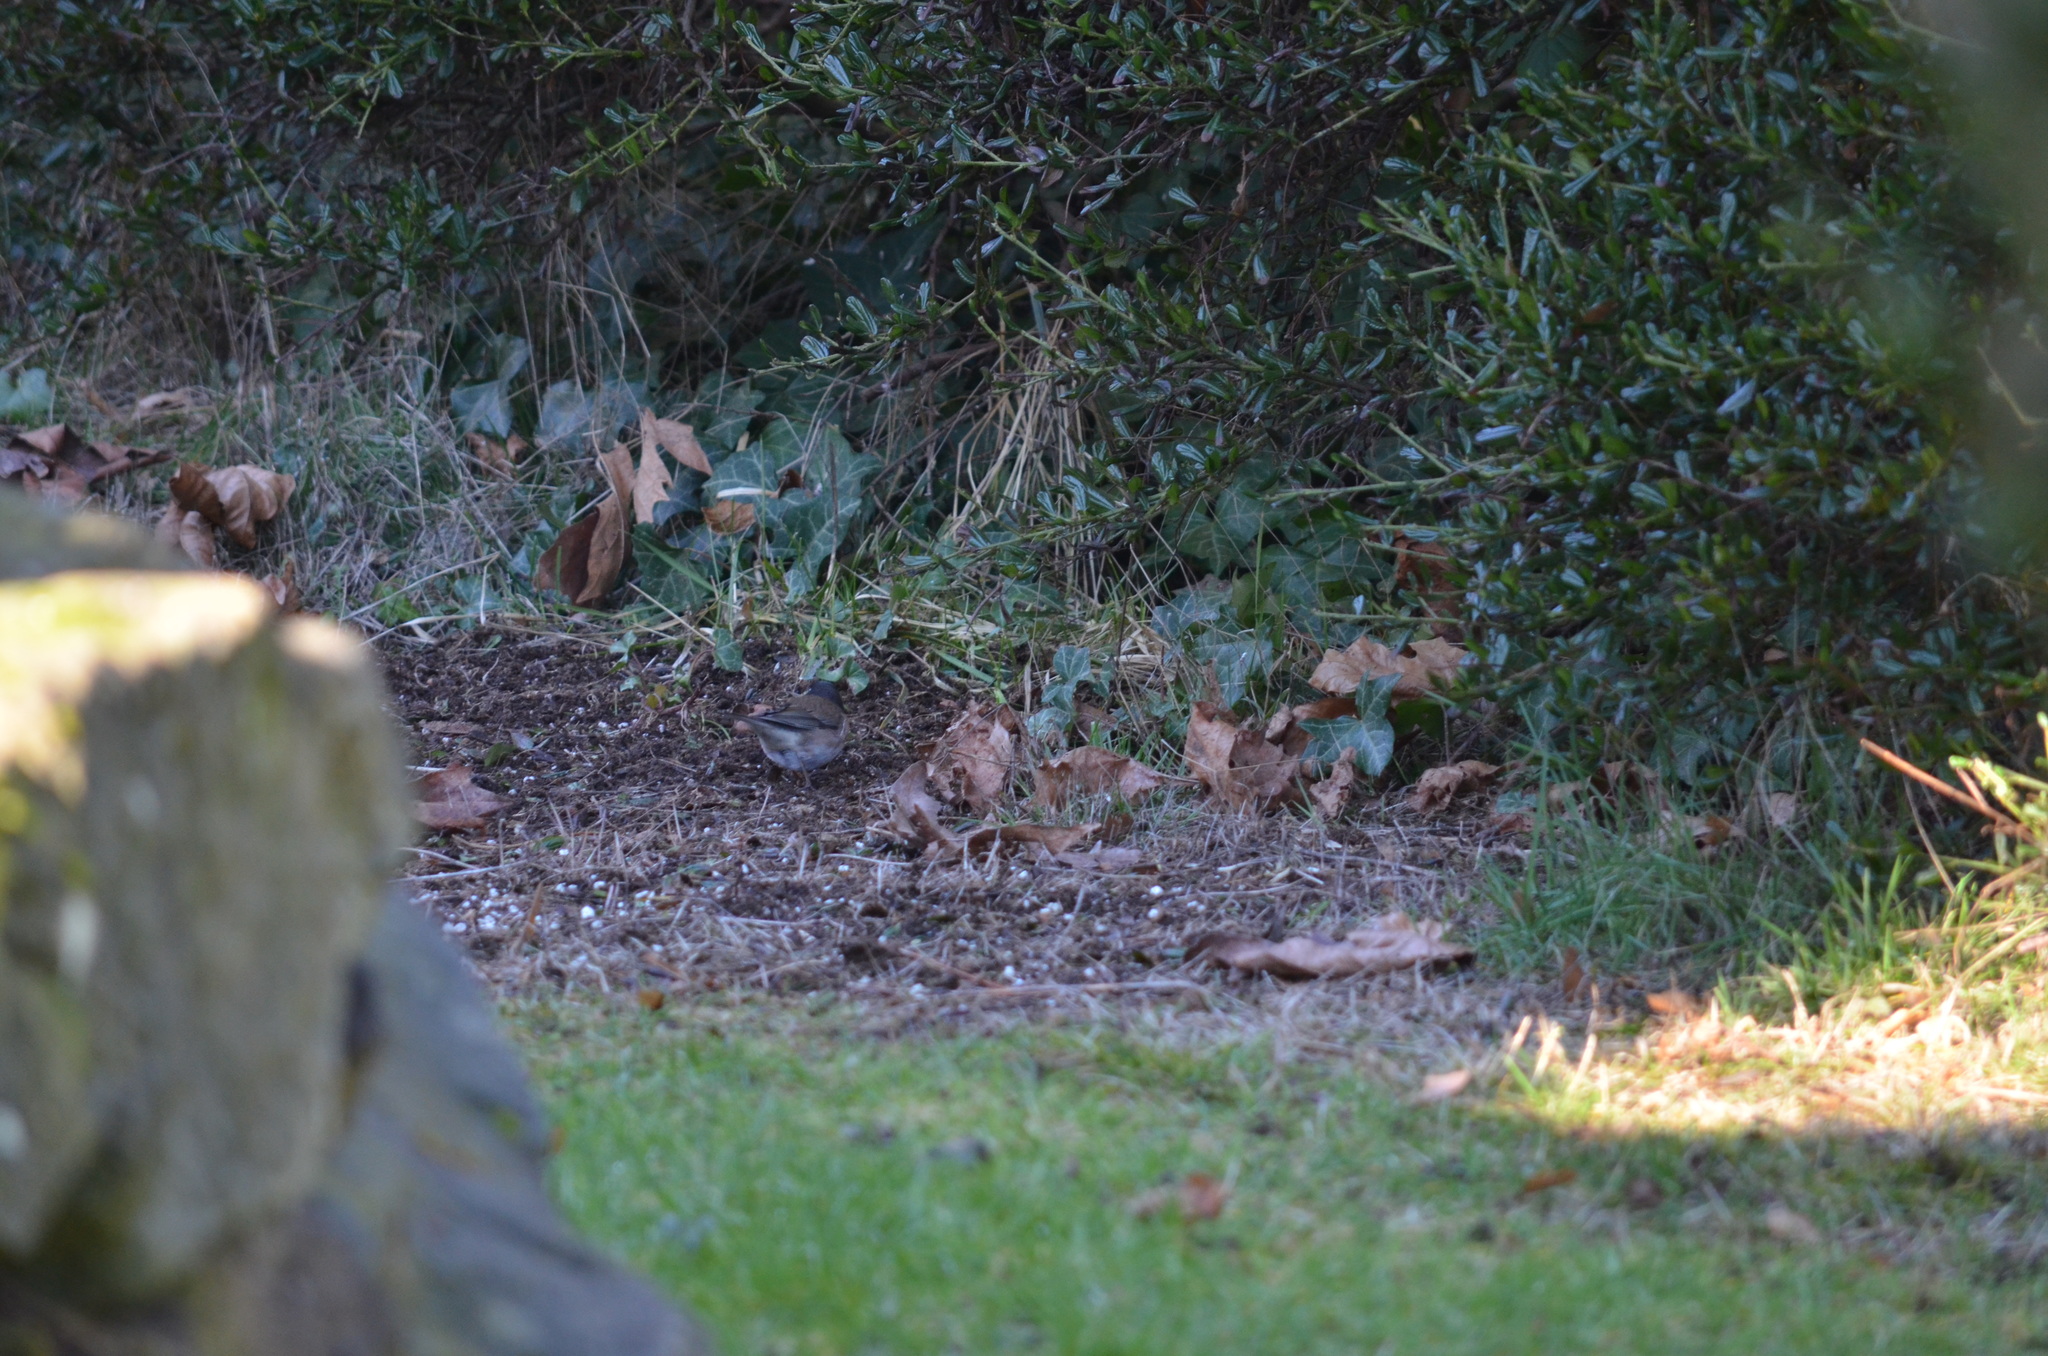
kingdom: Animalia
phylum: Chordata
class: Aves
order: Passeriformes
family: Passerellidae
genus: Junco
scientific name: Junco hyemalis
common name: Dark-eyed junco
